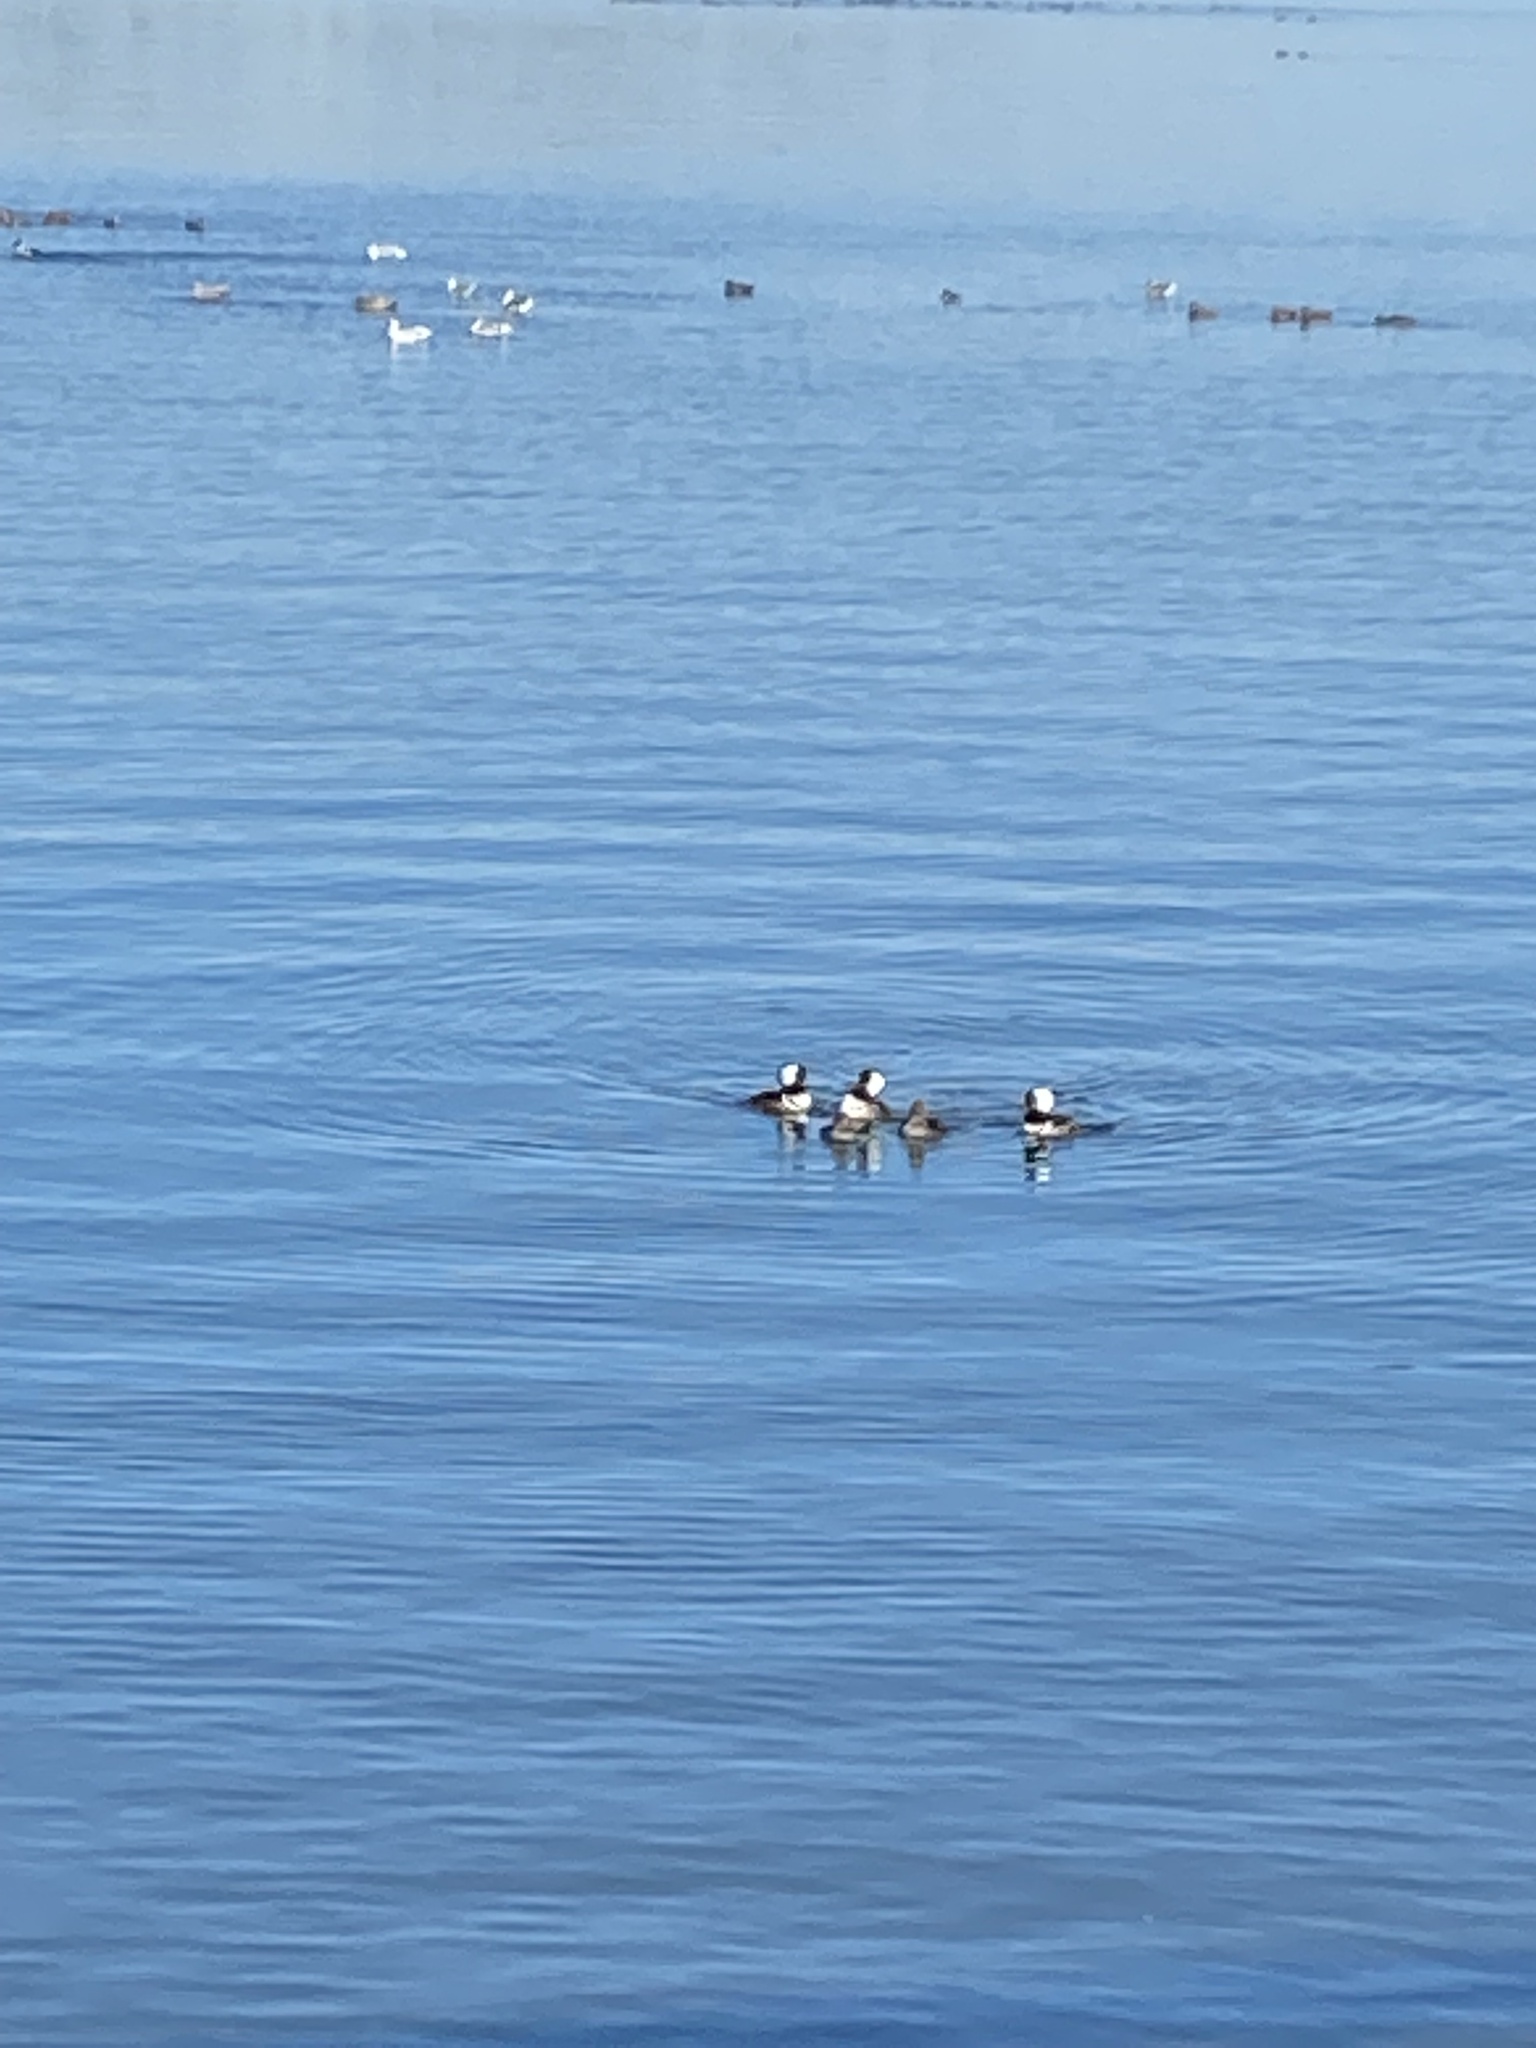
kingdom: Animalia
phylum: Chordata
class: Aves
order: Anseriformes
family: Anatidae
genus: Lophodytes
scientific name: Lophodytes cucullatus
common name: Hooded merganser
